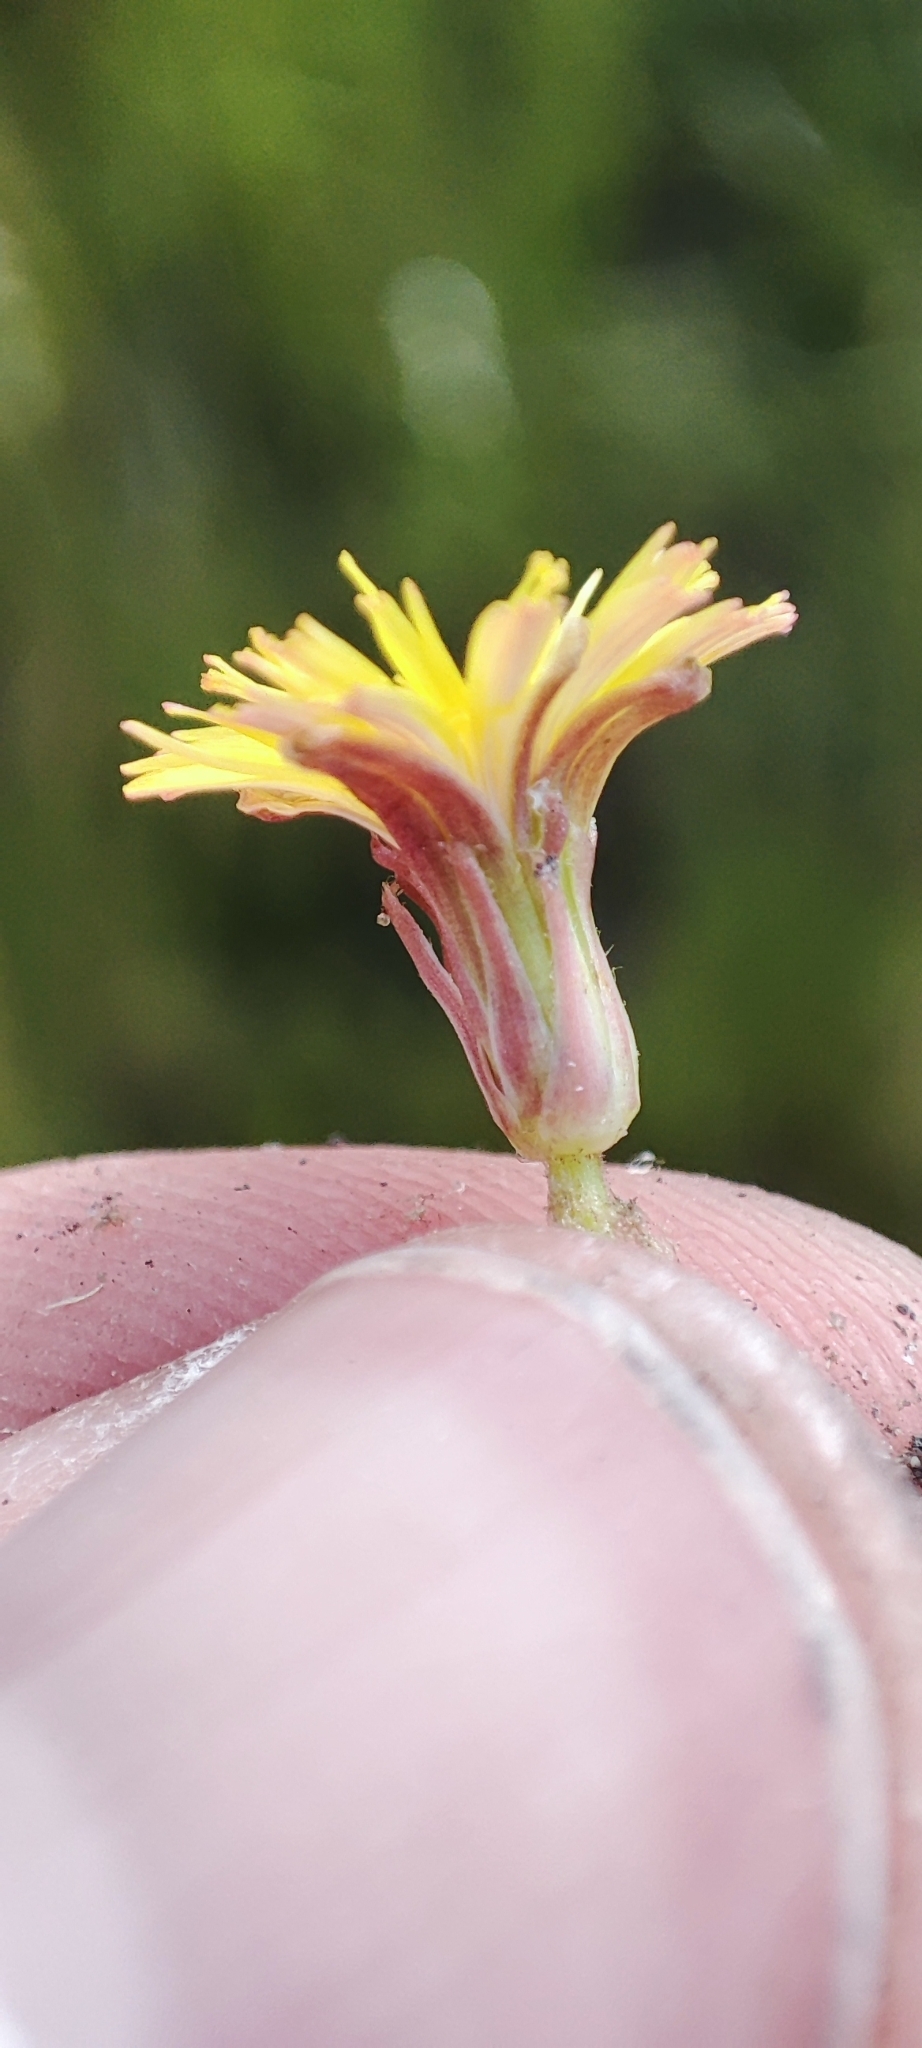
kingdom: Plantae
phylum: Tracheophyta
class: Magnoliopsida
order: Asterales
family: Asteraceae
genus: Taraxacum
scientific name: Taraxacum bessarabicum
